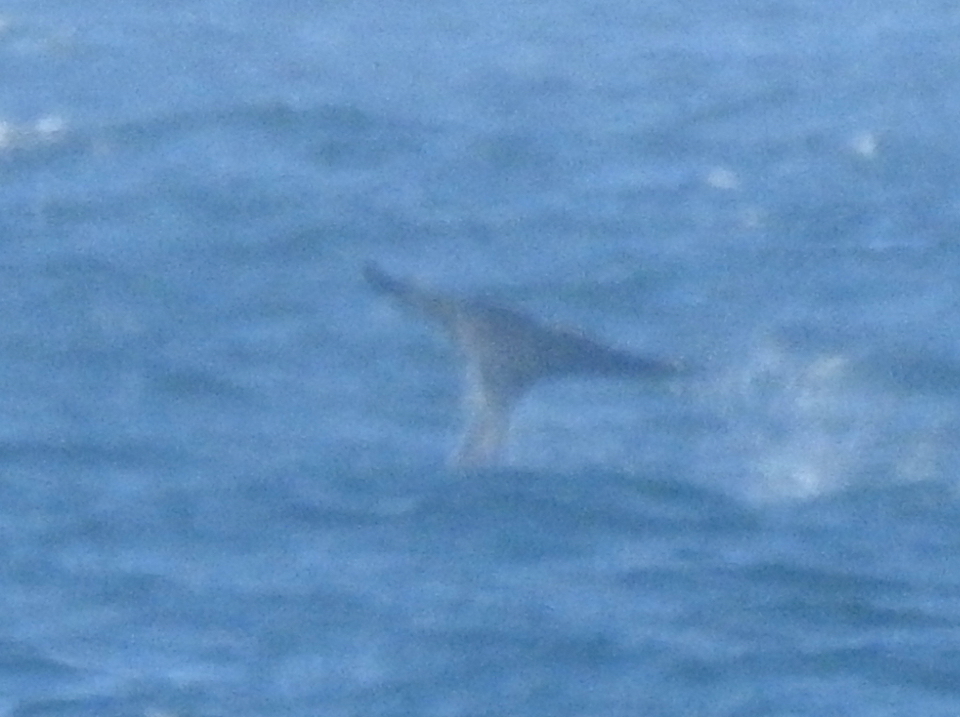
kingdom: Animalia
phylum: Chordata
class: Mammalia
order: Cetacea
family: Balaenopteridae
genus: Megaptera
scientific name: Megaptera novaeangliae
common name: Humpback whale
